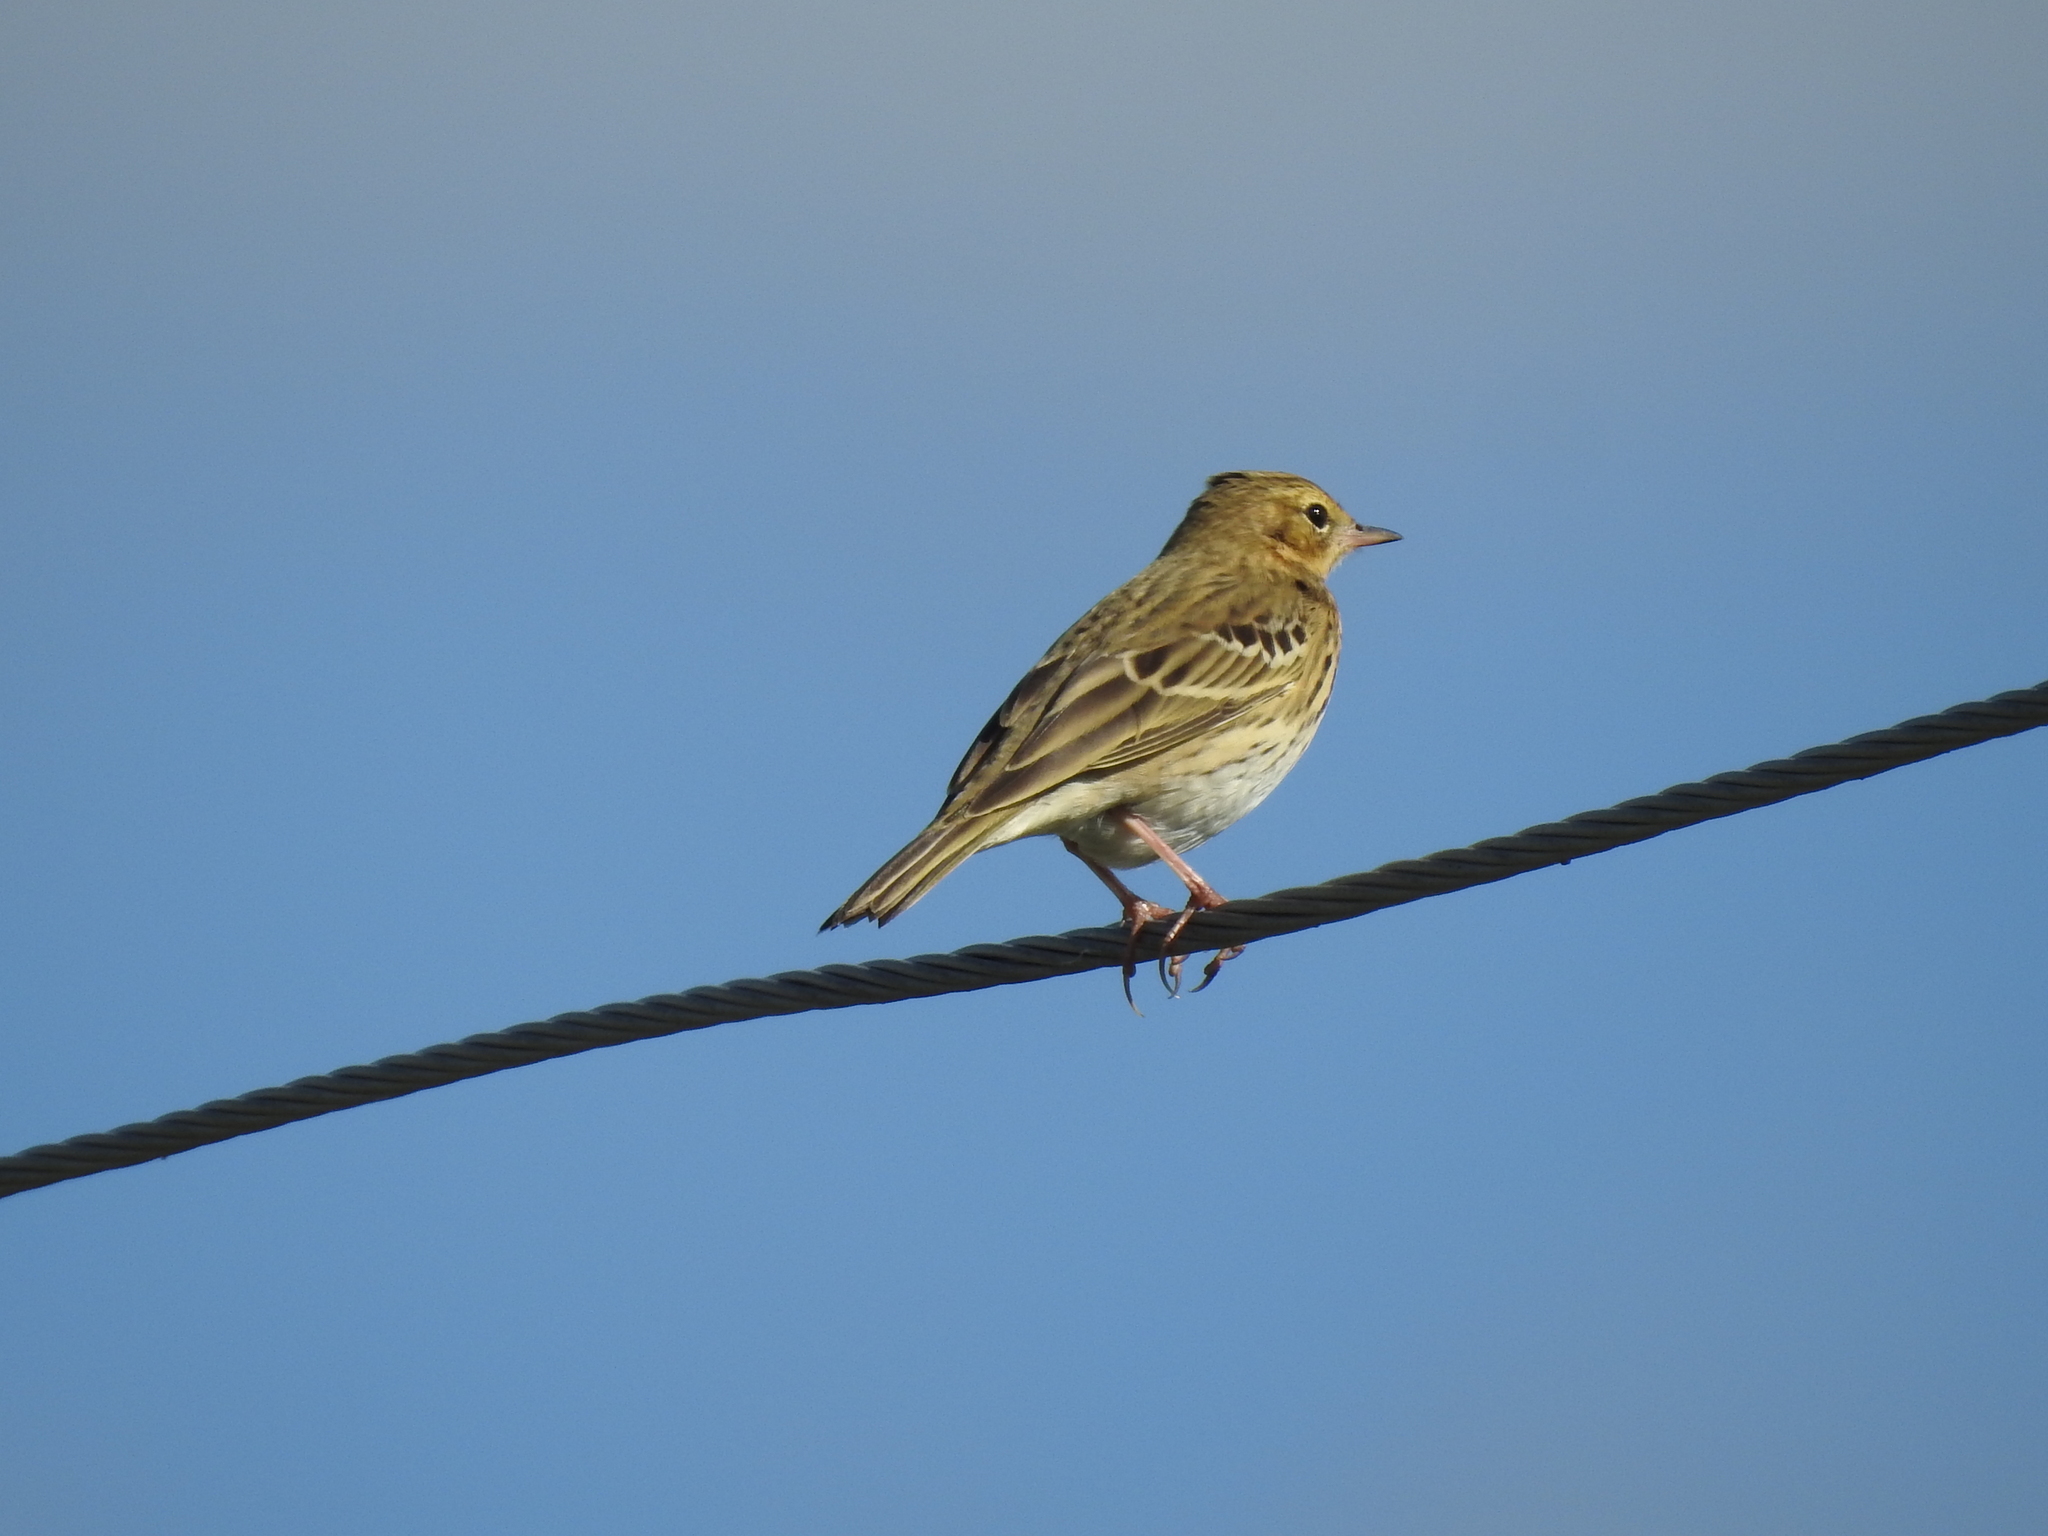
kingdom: Animalia
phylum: Chordata
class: Aves
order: Passeriformes
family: Motacillidae
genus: Anthus
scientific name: Anthus trivialis
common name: Tree pipit
